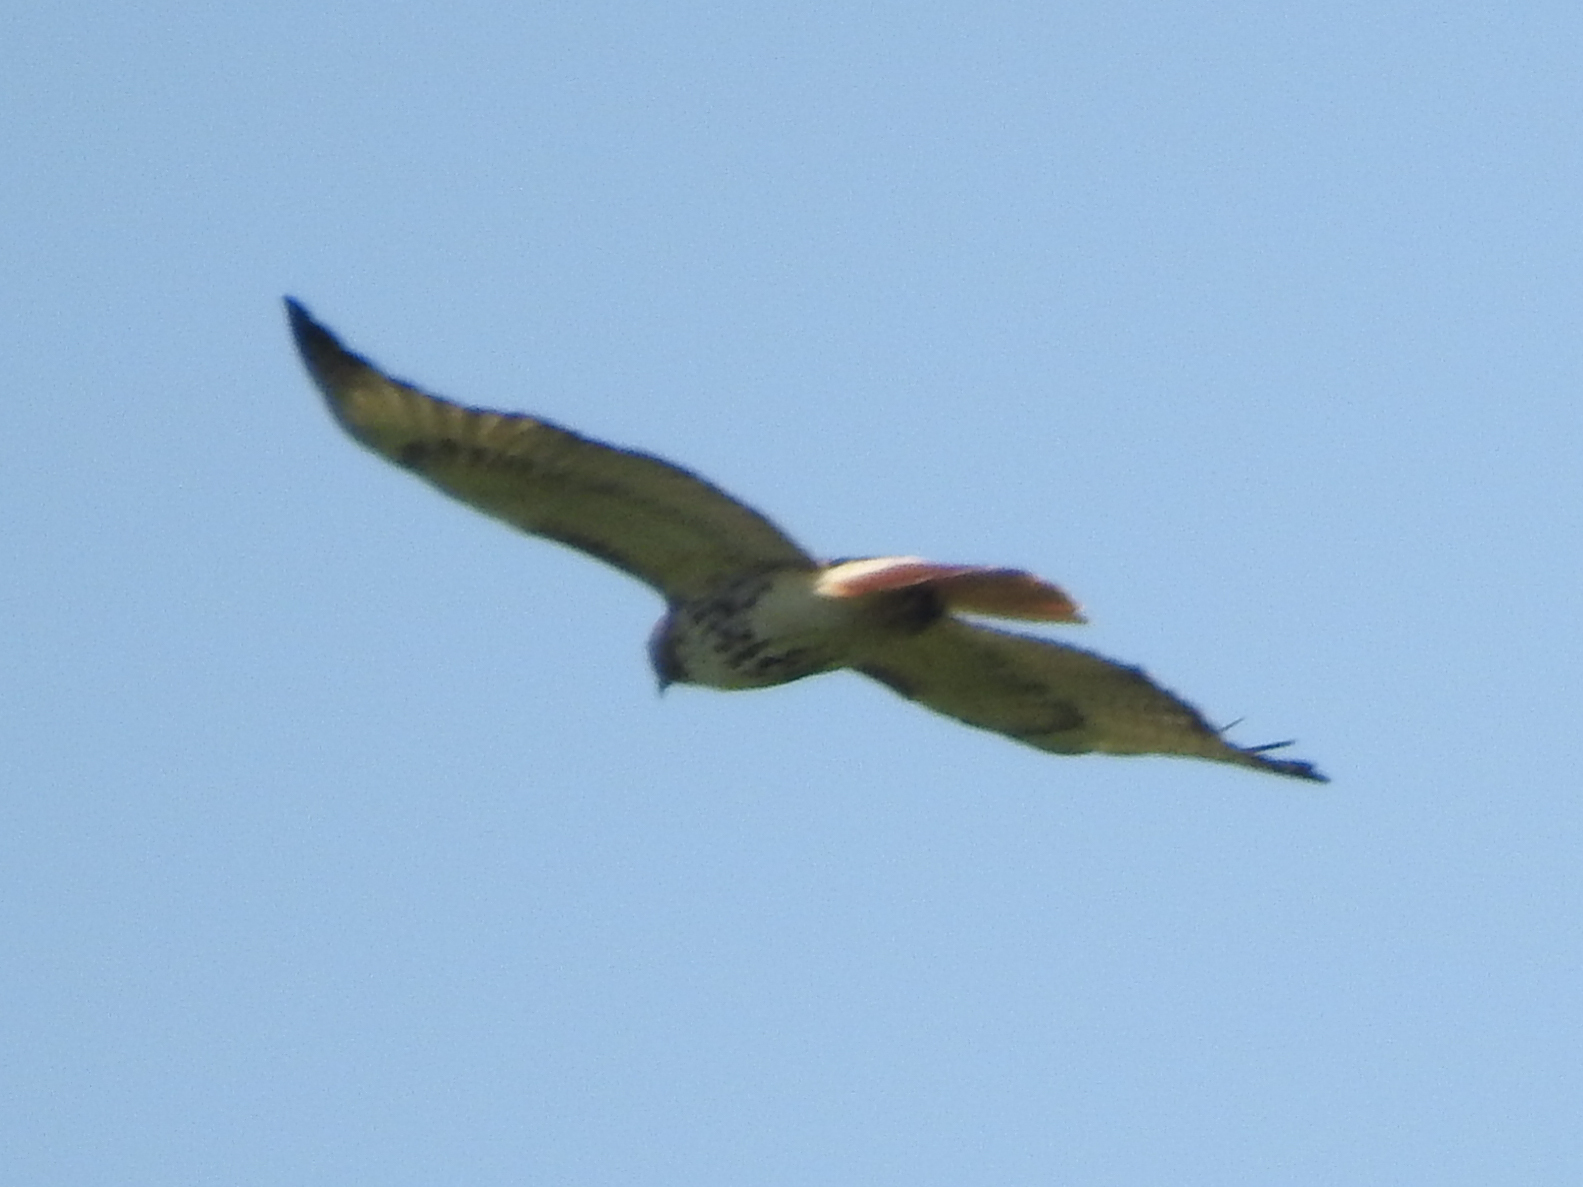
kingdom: Animalia
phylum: Chordata
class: Aves
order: Accipitriformes
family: Accipitridae
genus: Buteo
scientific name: Buteo jamaicensis
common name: Red-tailed hawk
